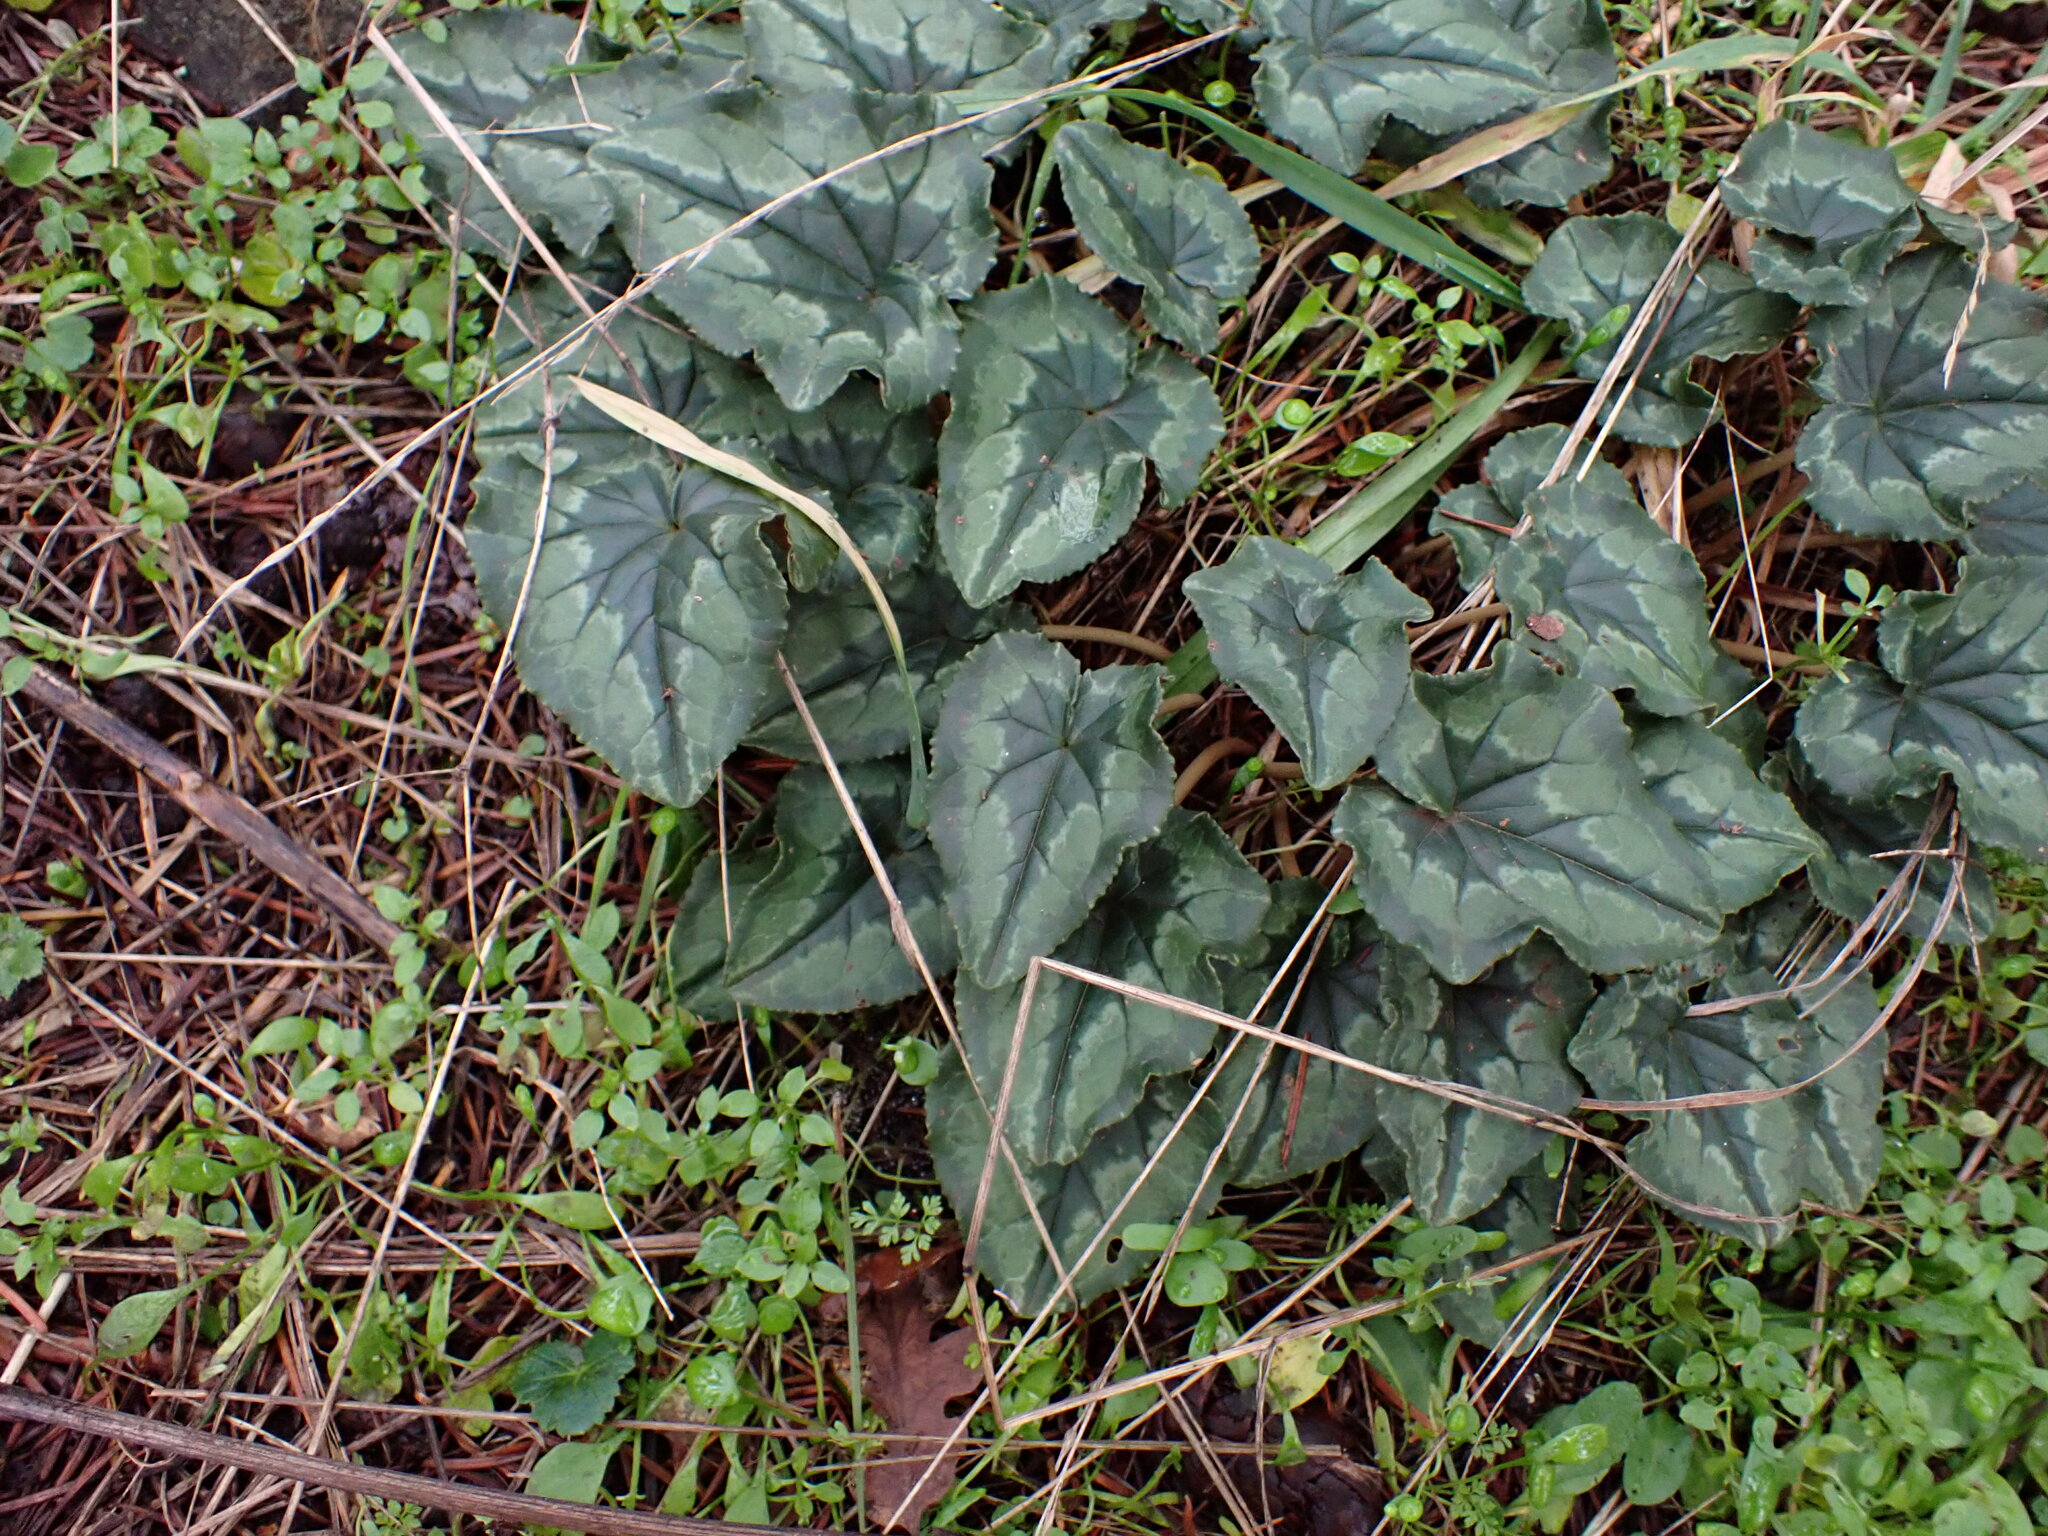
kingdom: Plantae
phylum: Tracheophyta
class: Magnoliopsida
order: Ericales
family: Primulaceae
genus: Cyclamen
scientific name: Cyclamen hederifolium
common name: Sowbread
